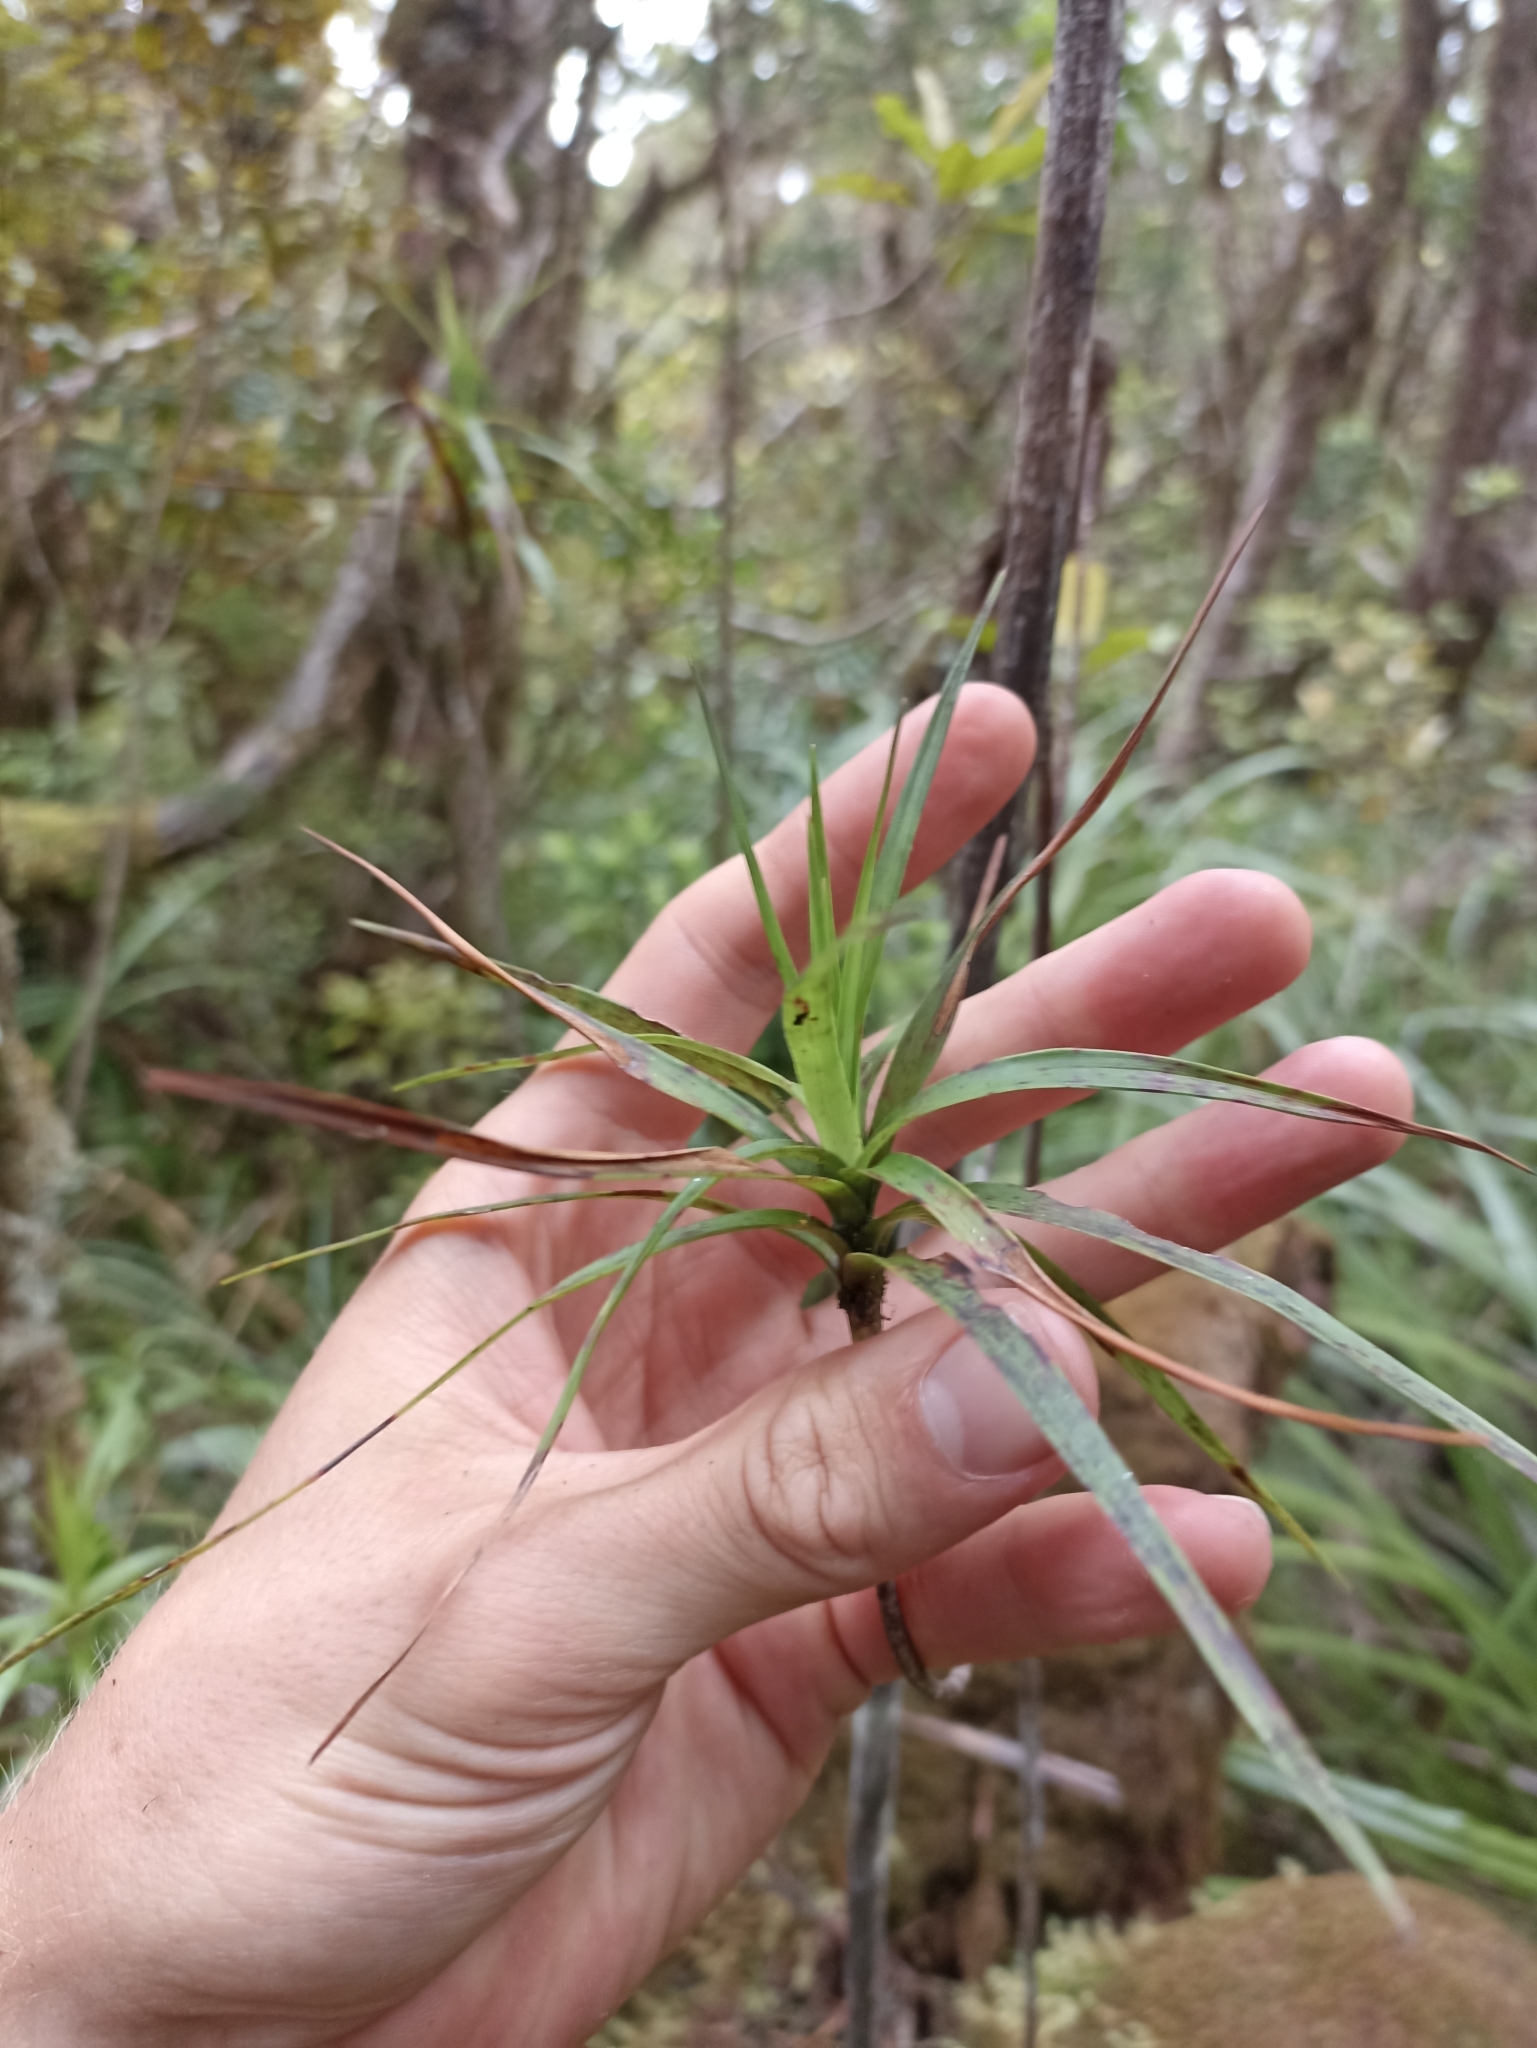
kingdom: Plantae
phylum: Tracheophyta
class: Magnoliopsida
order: Ericales
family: Ericaceae
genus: Dracophyllum
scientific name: Dracophyllum patens
